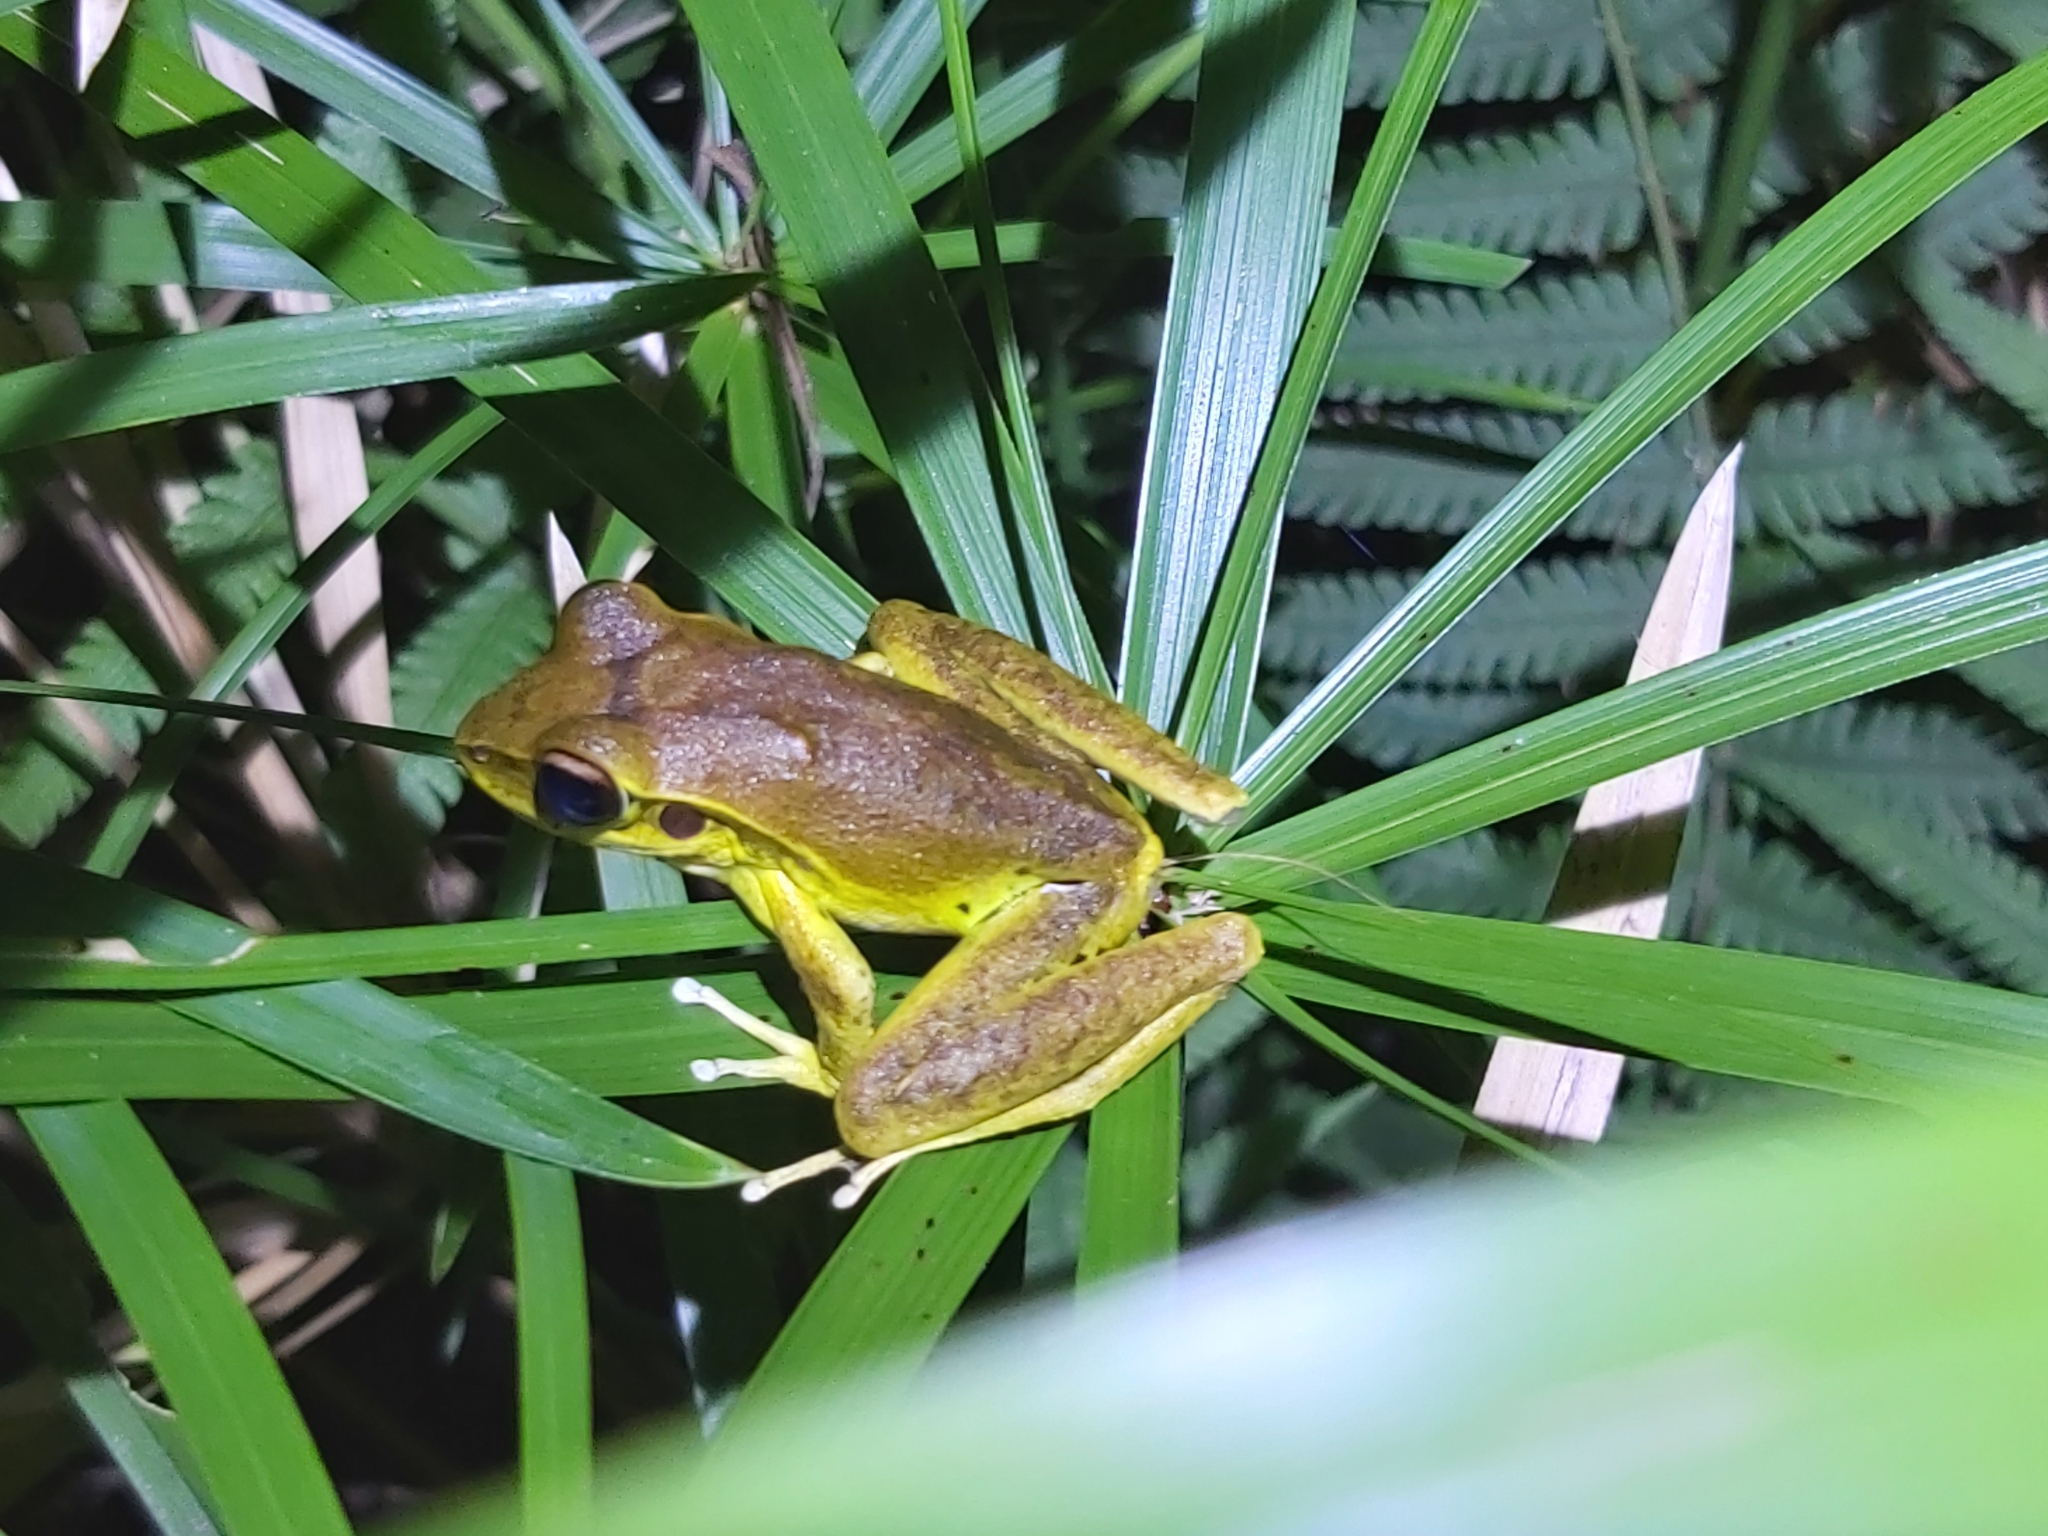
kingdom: Animalia
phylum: Chordata
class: Amphibia
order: Anura
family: Hylidae
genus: Ranoidea
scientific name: Ranoidea
